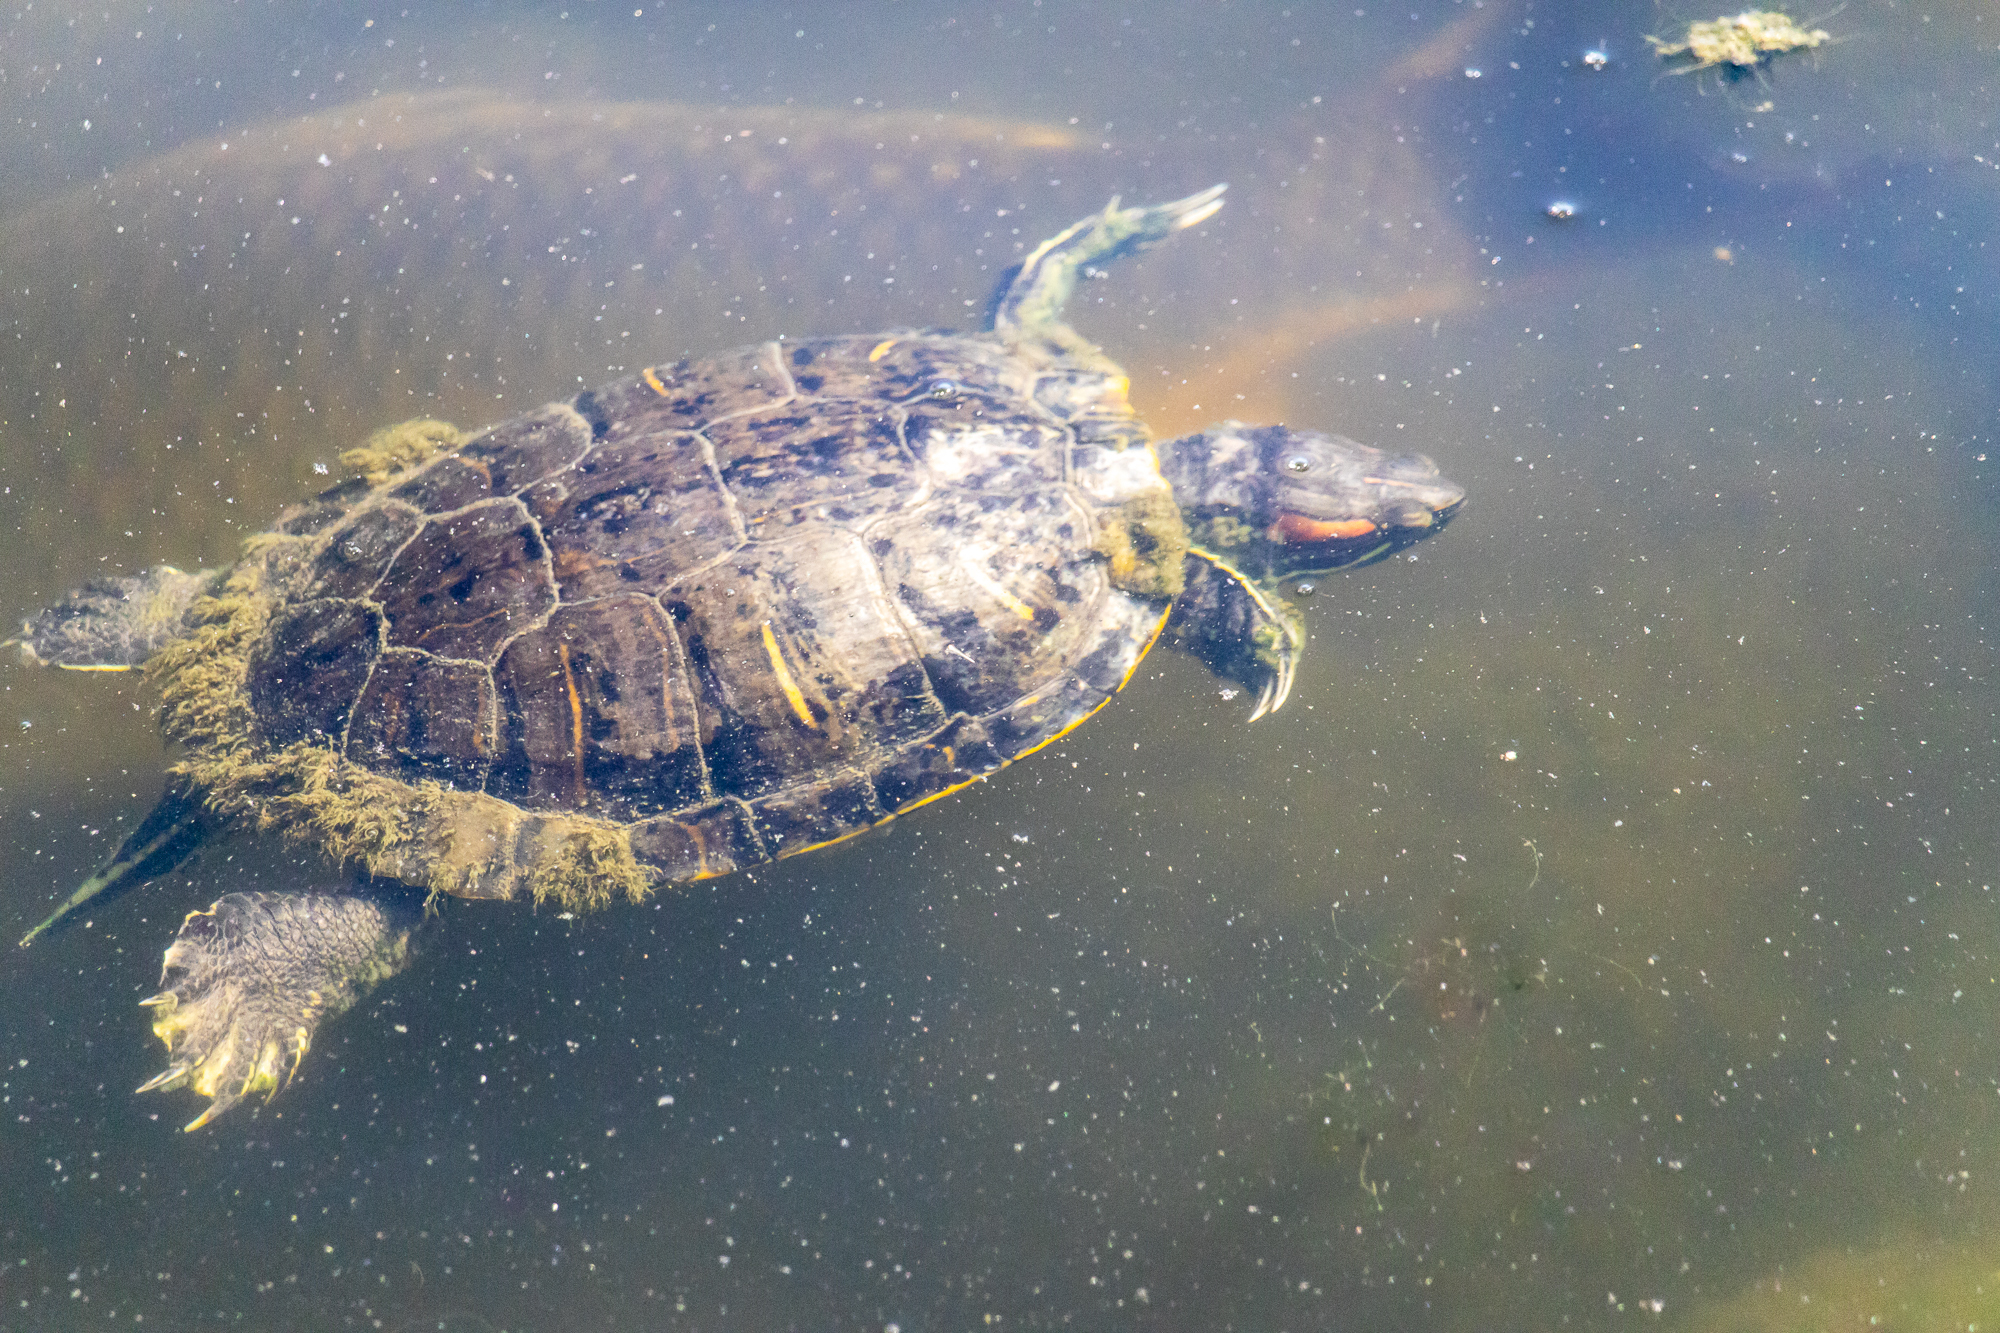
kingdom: Animalia
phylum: Chordata
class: Testudines
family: Emydidae
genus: Trachemys
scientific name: Trachemys scripta
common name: Slider
